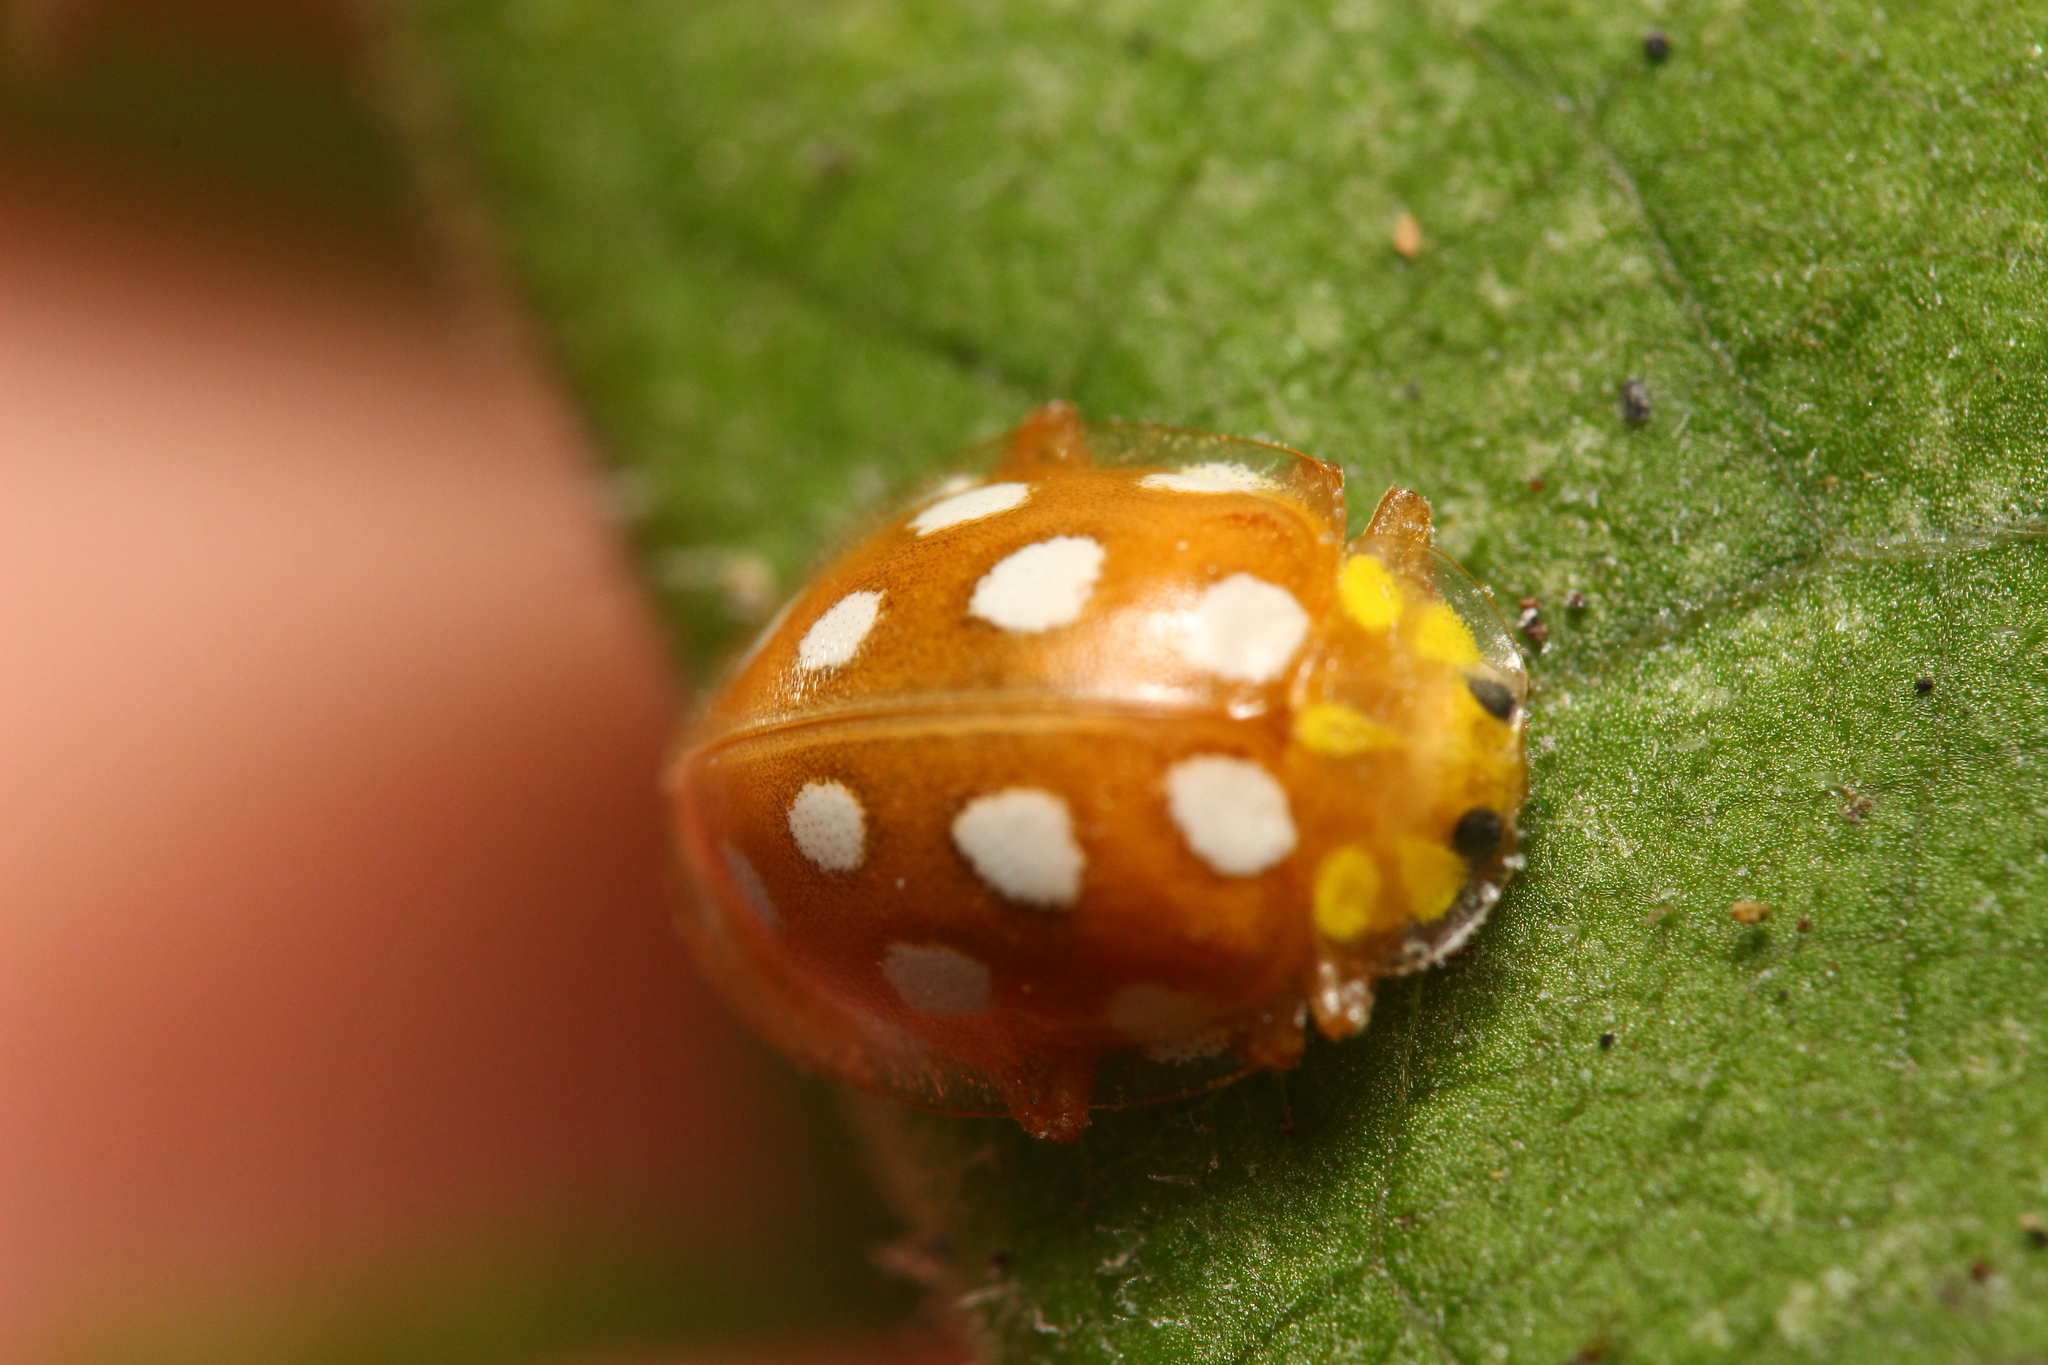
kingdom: Animalia
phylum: Arthropoda
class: Insecta
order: Coleoptera
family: Coccinellidae
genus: Halyzia
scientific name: Halyzia sedecimguttata
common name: Orange ladybird
